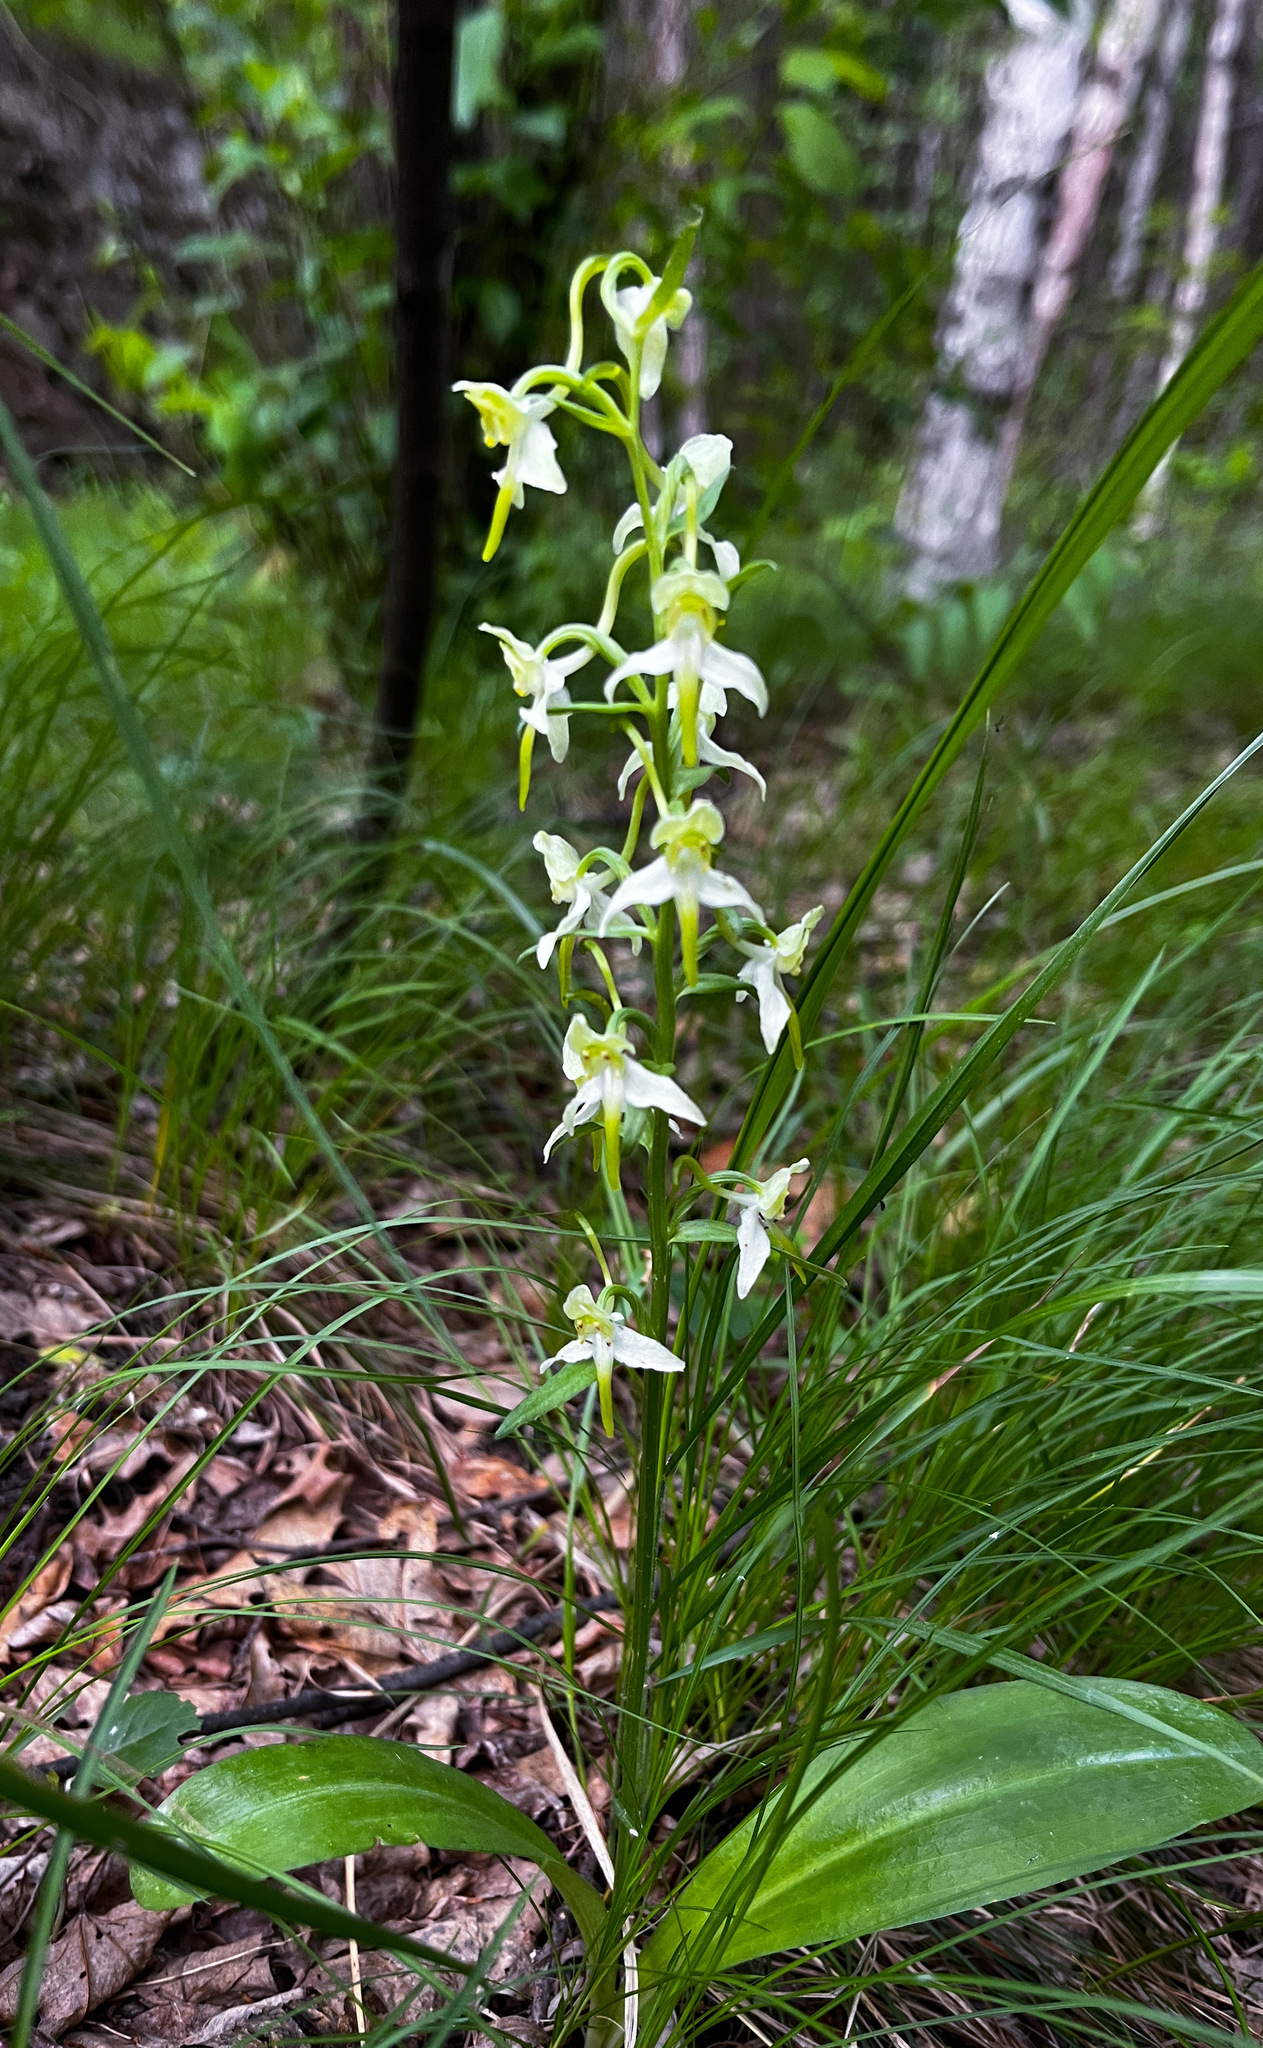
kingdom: Plantae
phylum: Tracheophyta
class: Liliopsida
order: Asparagales
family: Orchidaceae
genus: Platanthera
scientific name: Platanthera densa
